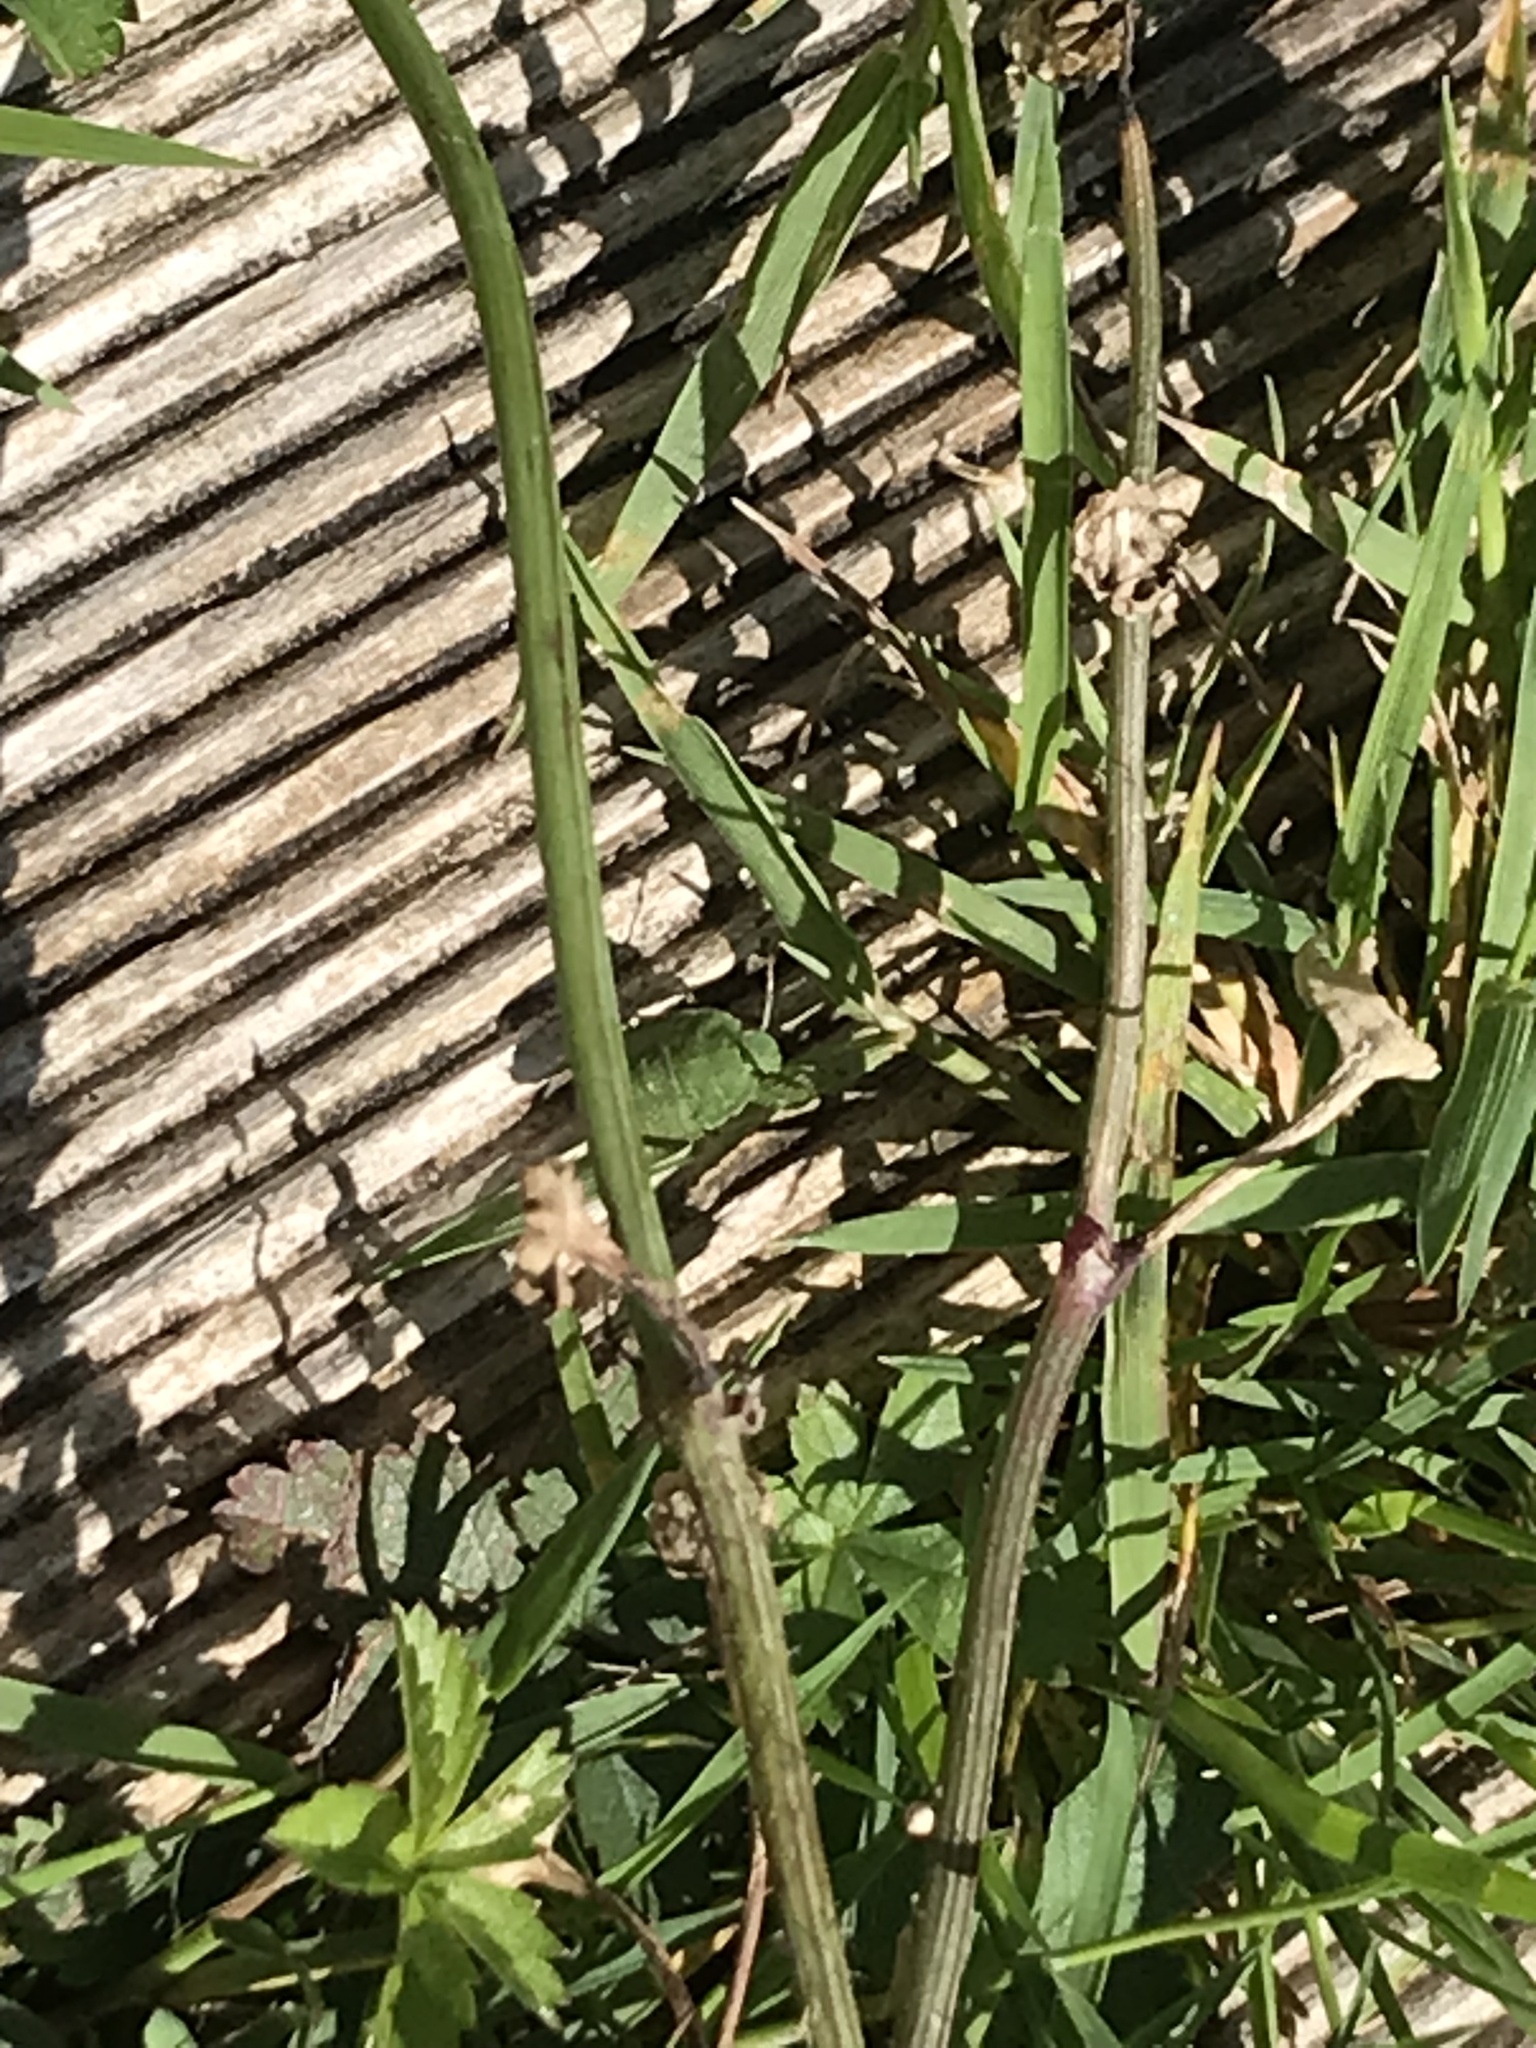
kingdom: Animalia
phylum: Arthropoda
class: Insecta
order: Hemiptera
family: Pentatomidae
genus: Palomena
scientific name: Palomena prasina
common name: Green shieldbug
